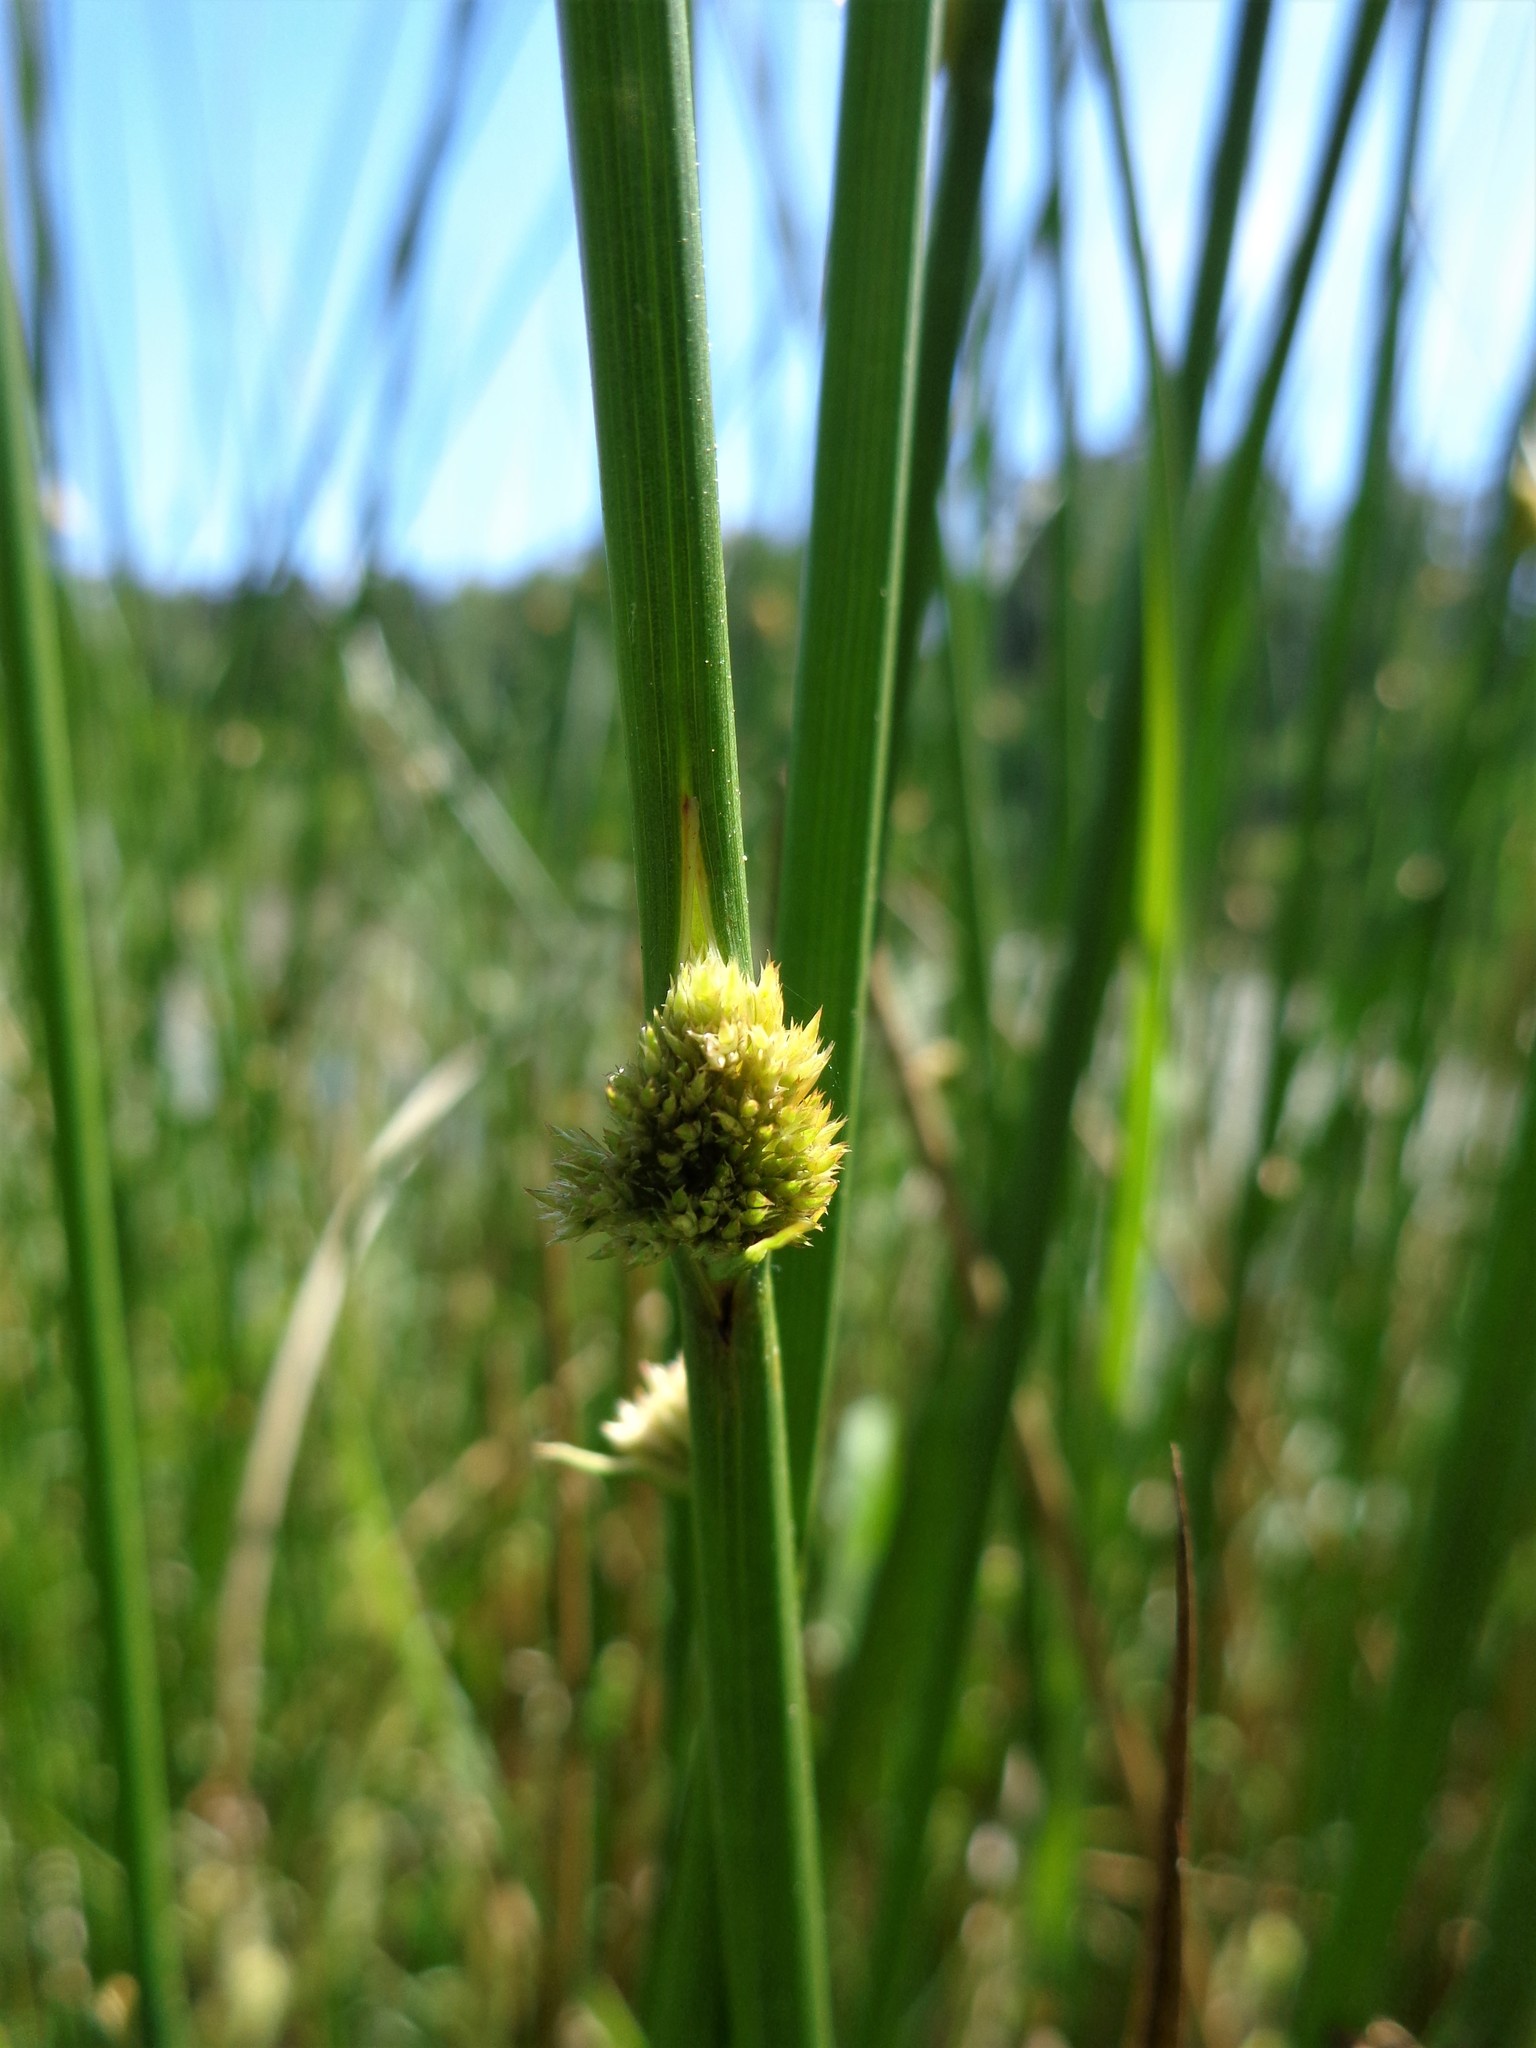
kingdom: Plantae
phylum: Tracheophyta
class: Liliopsida
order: Poales
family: Juncaceae
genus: Juncus
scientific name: Juncus effusus
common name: Soft rush
